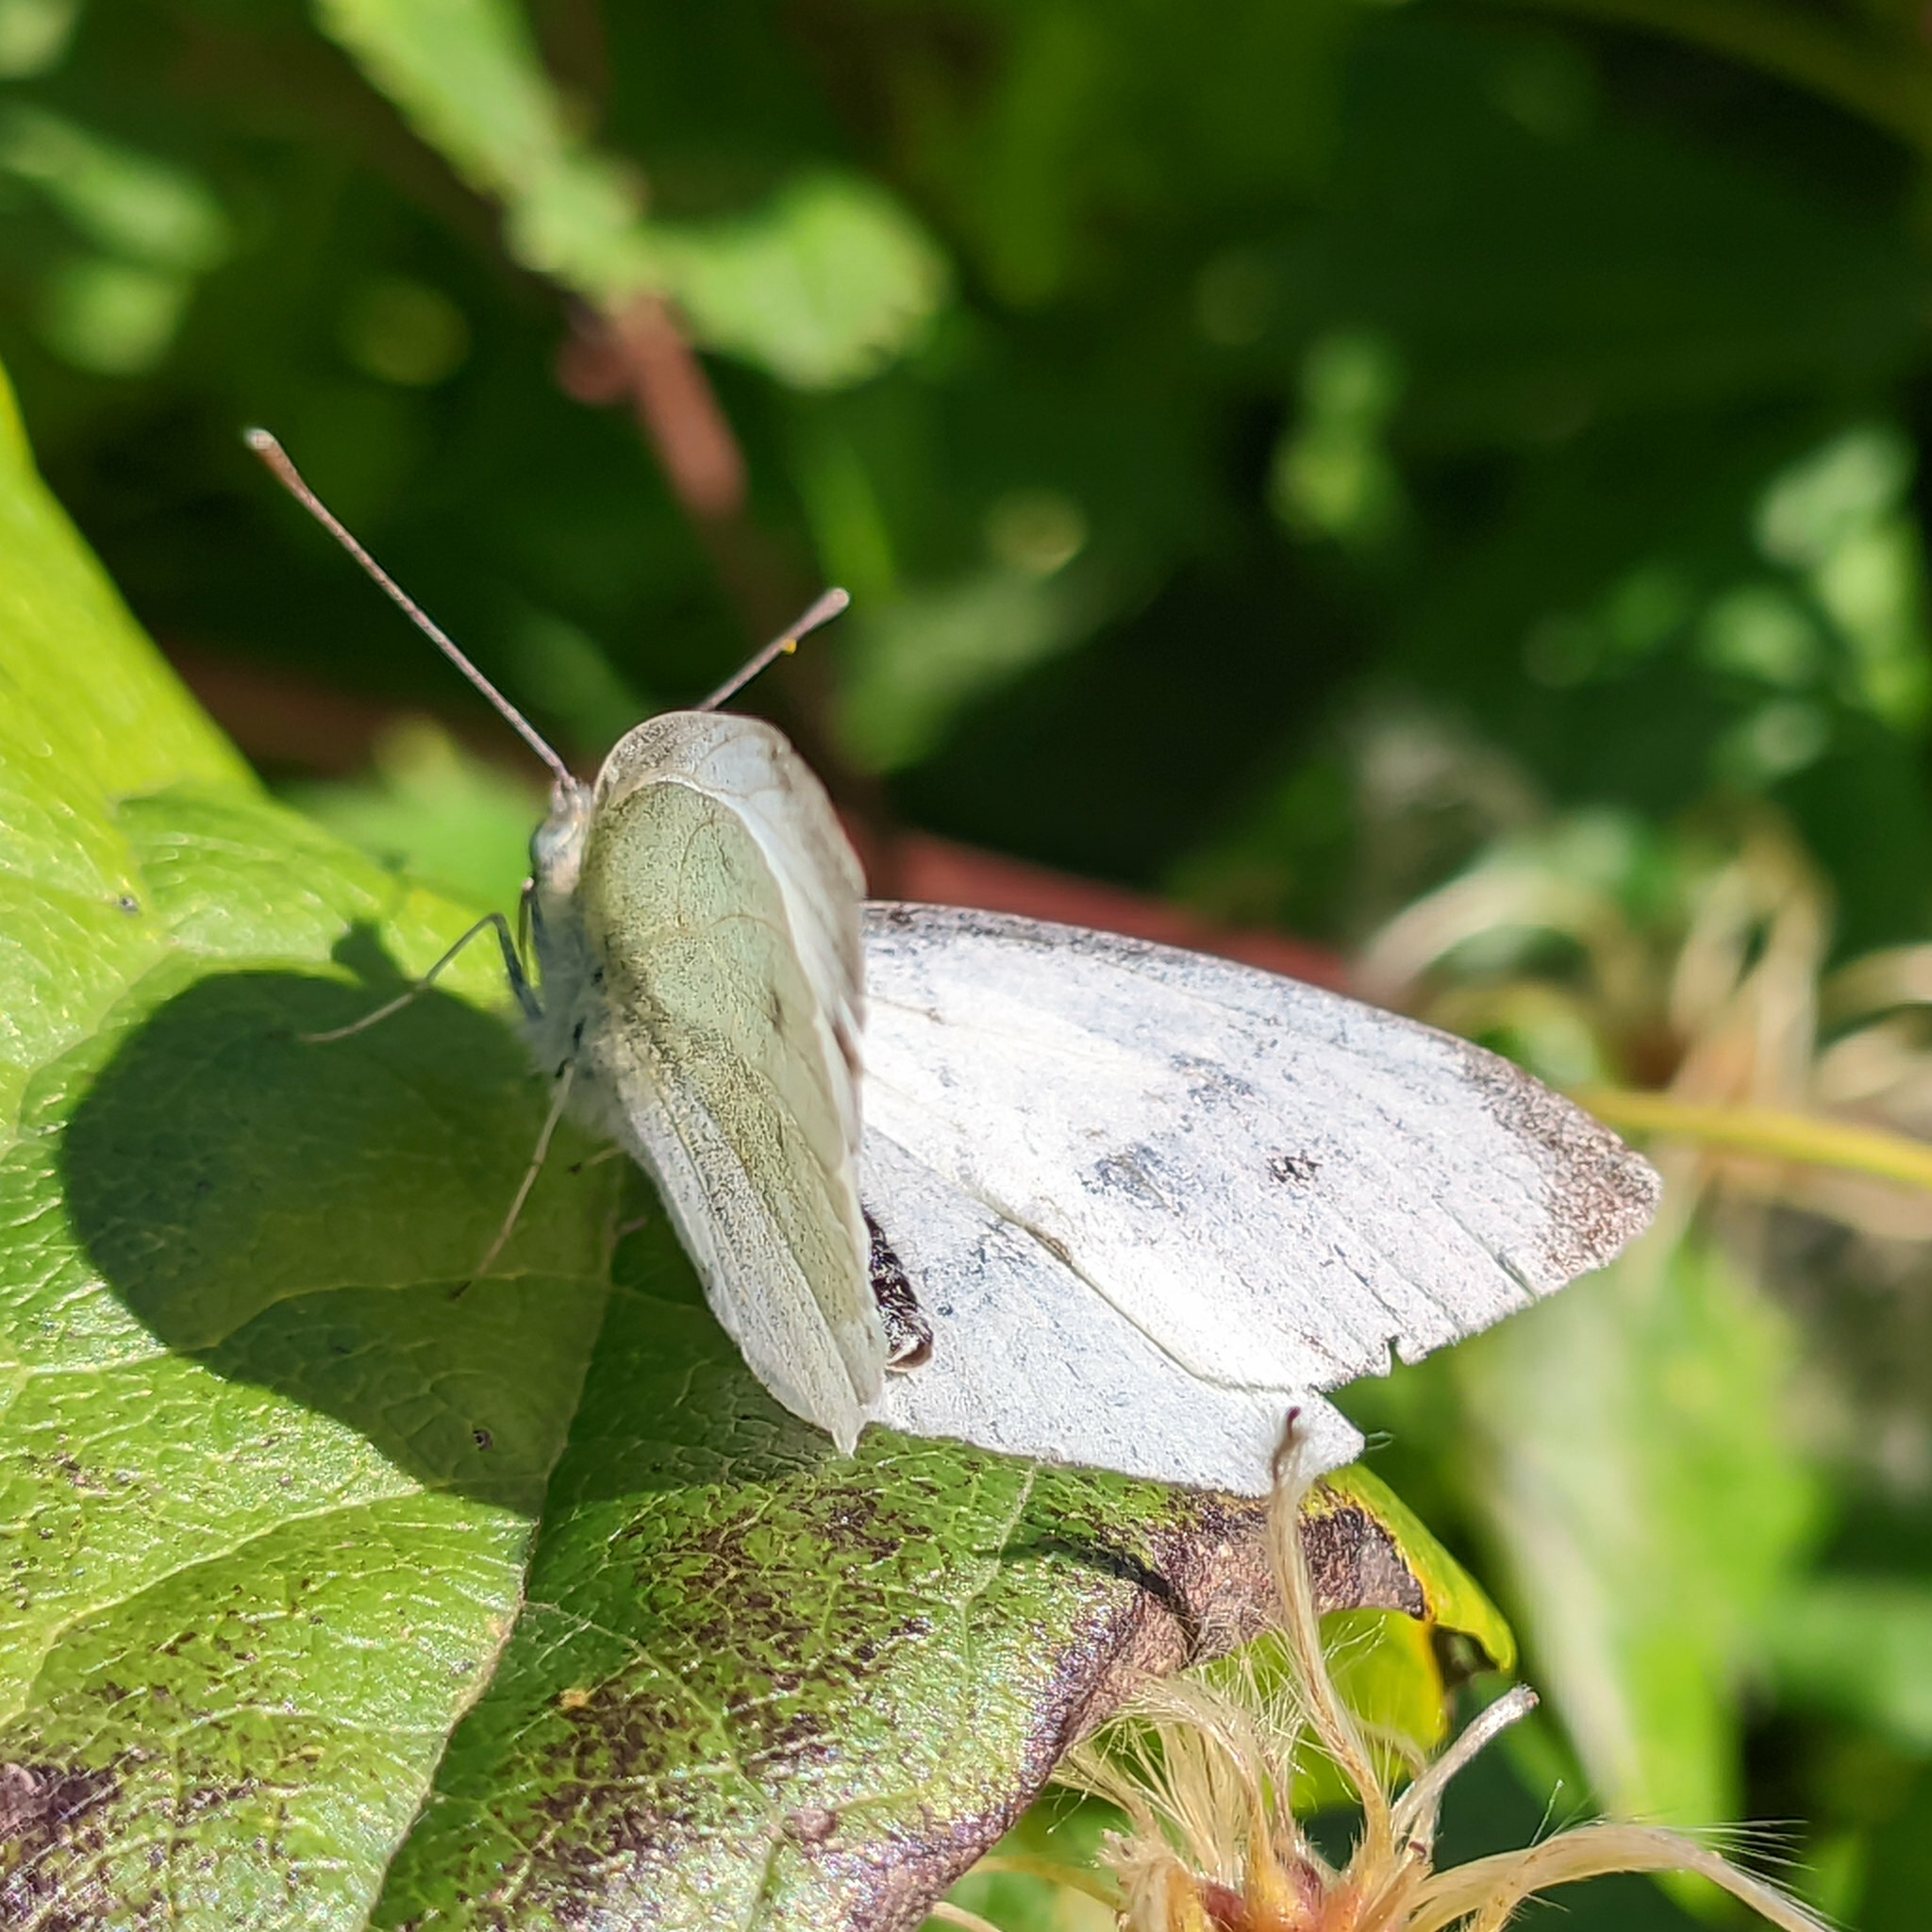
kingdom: Animalia
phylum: Arthropoda
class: Insecta
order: Lepidoptera
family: Pieridae
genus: Pieris
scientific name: Pieris rapae
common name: Small white
